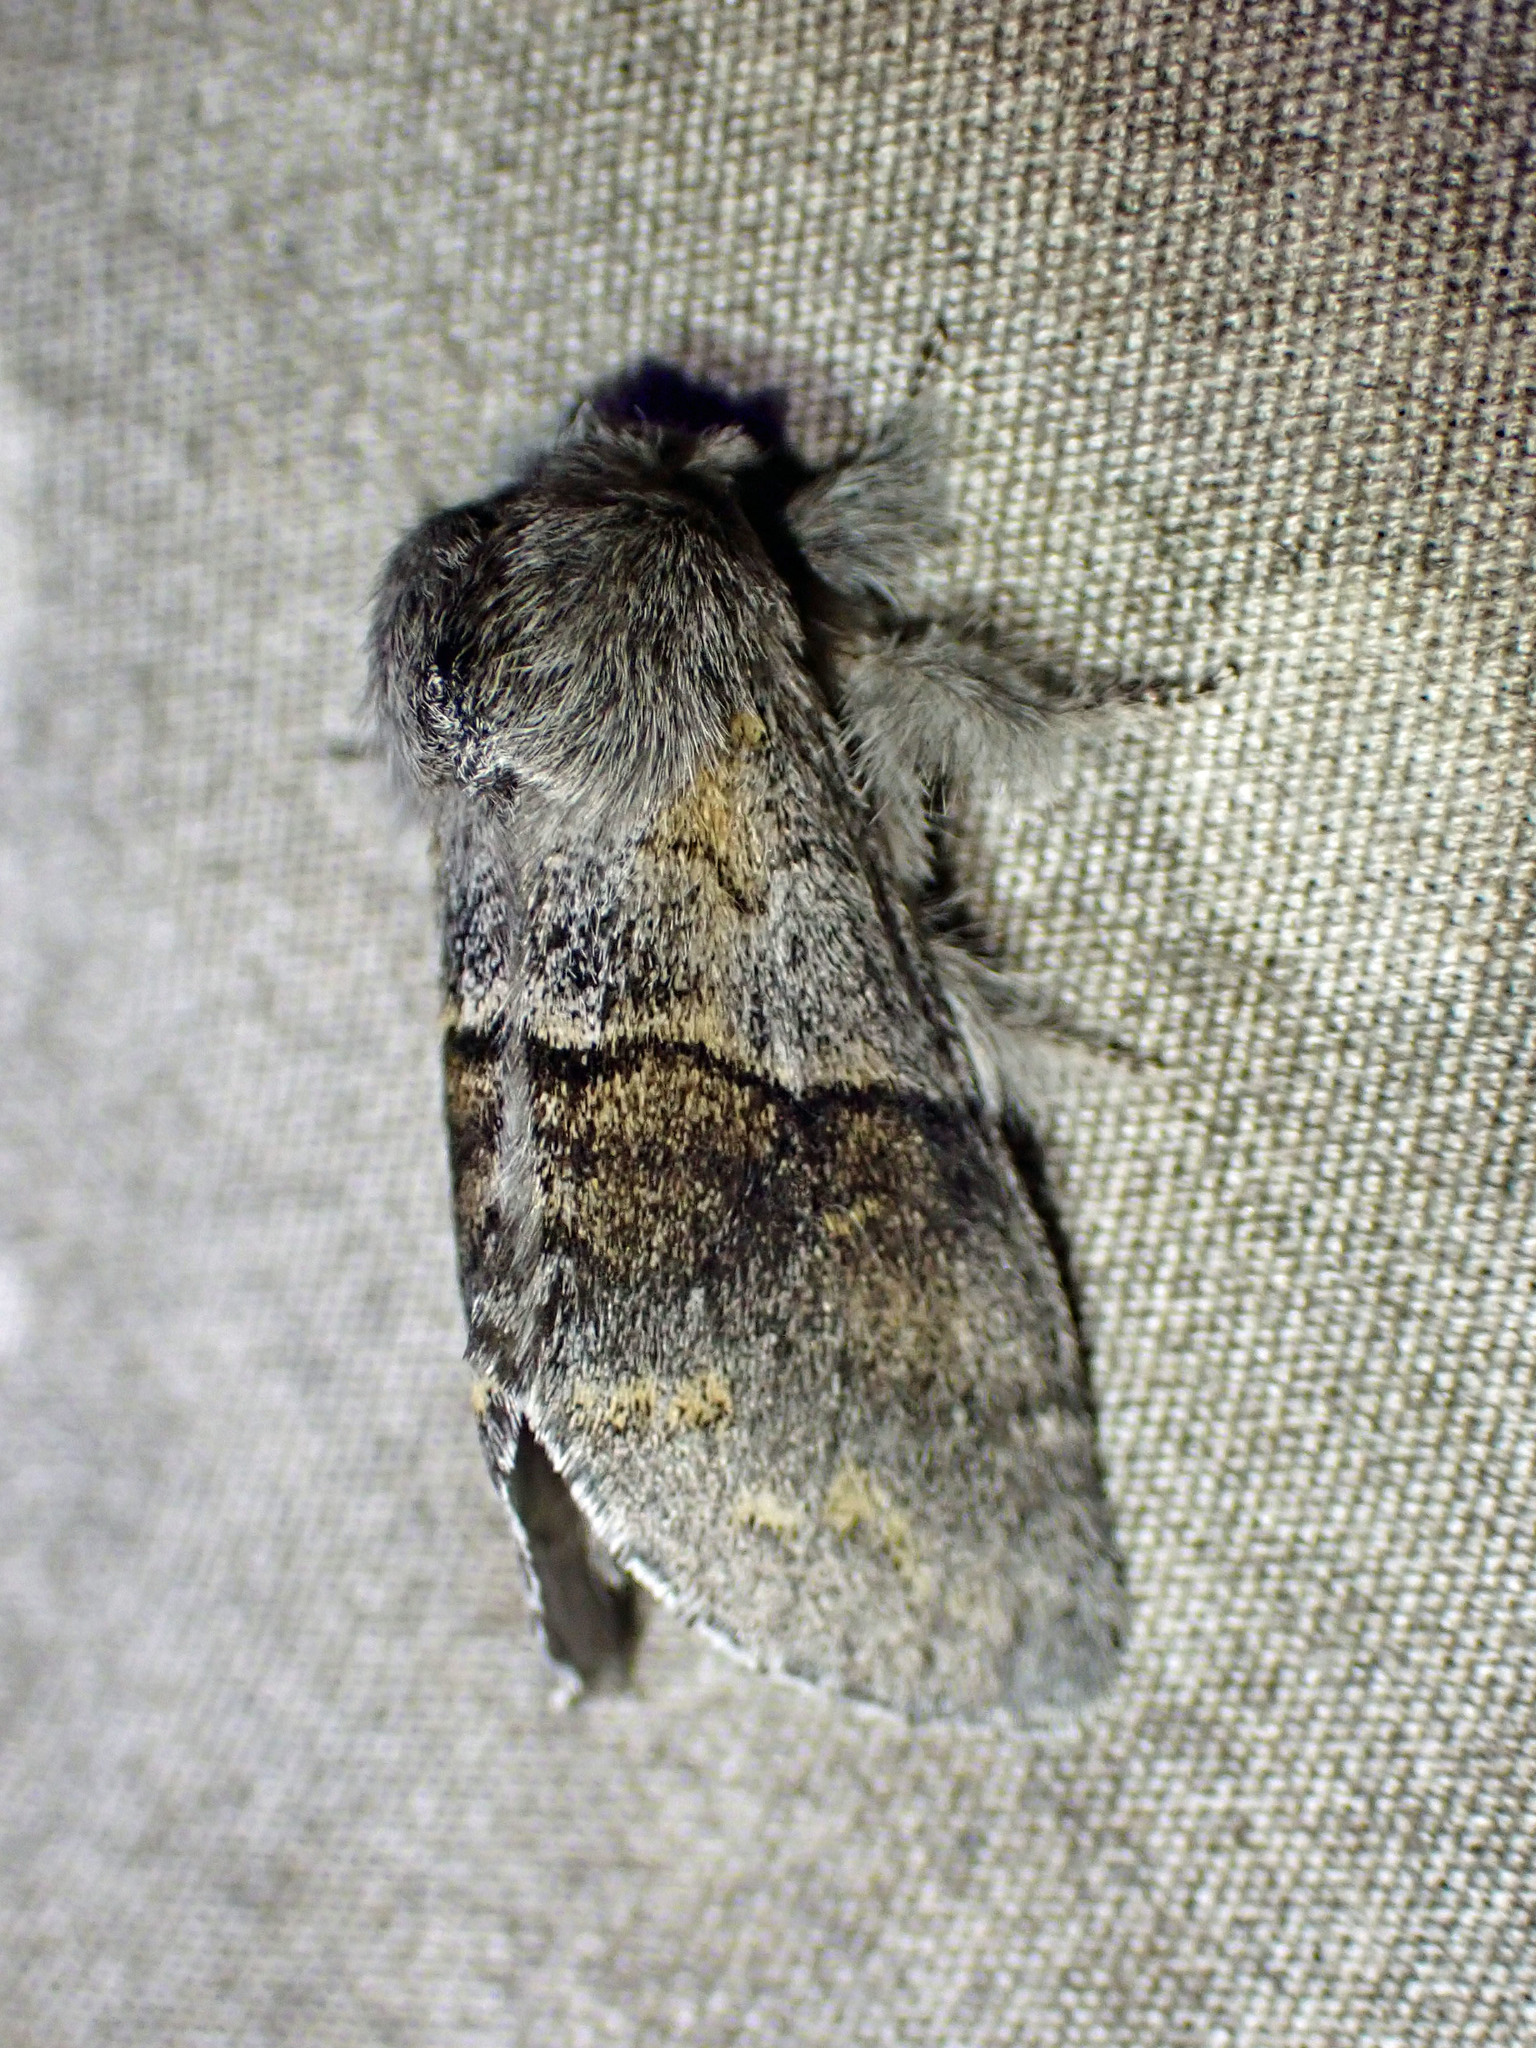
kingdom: Animalia
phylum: Arthropoda
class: Insecta
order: Lepidoptera
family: Notodontidae
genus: Gluphisia
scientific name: Gluphisia lintneri
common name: Lintner's gluphisia moth
